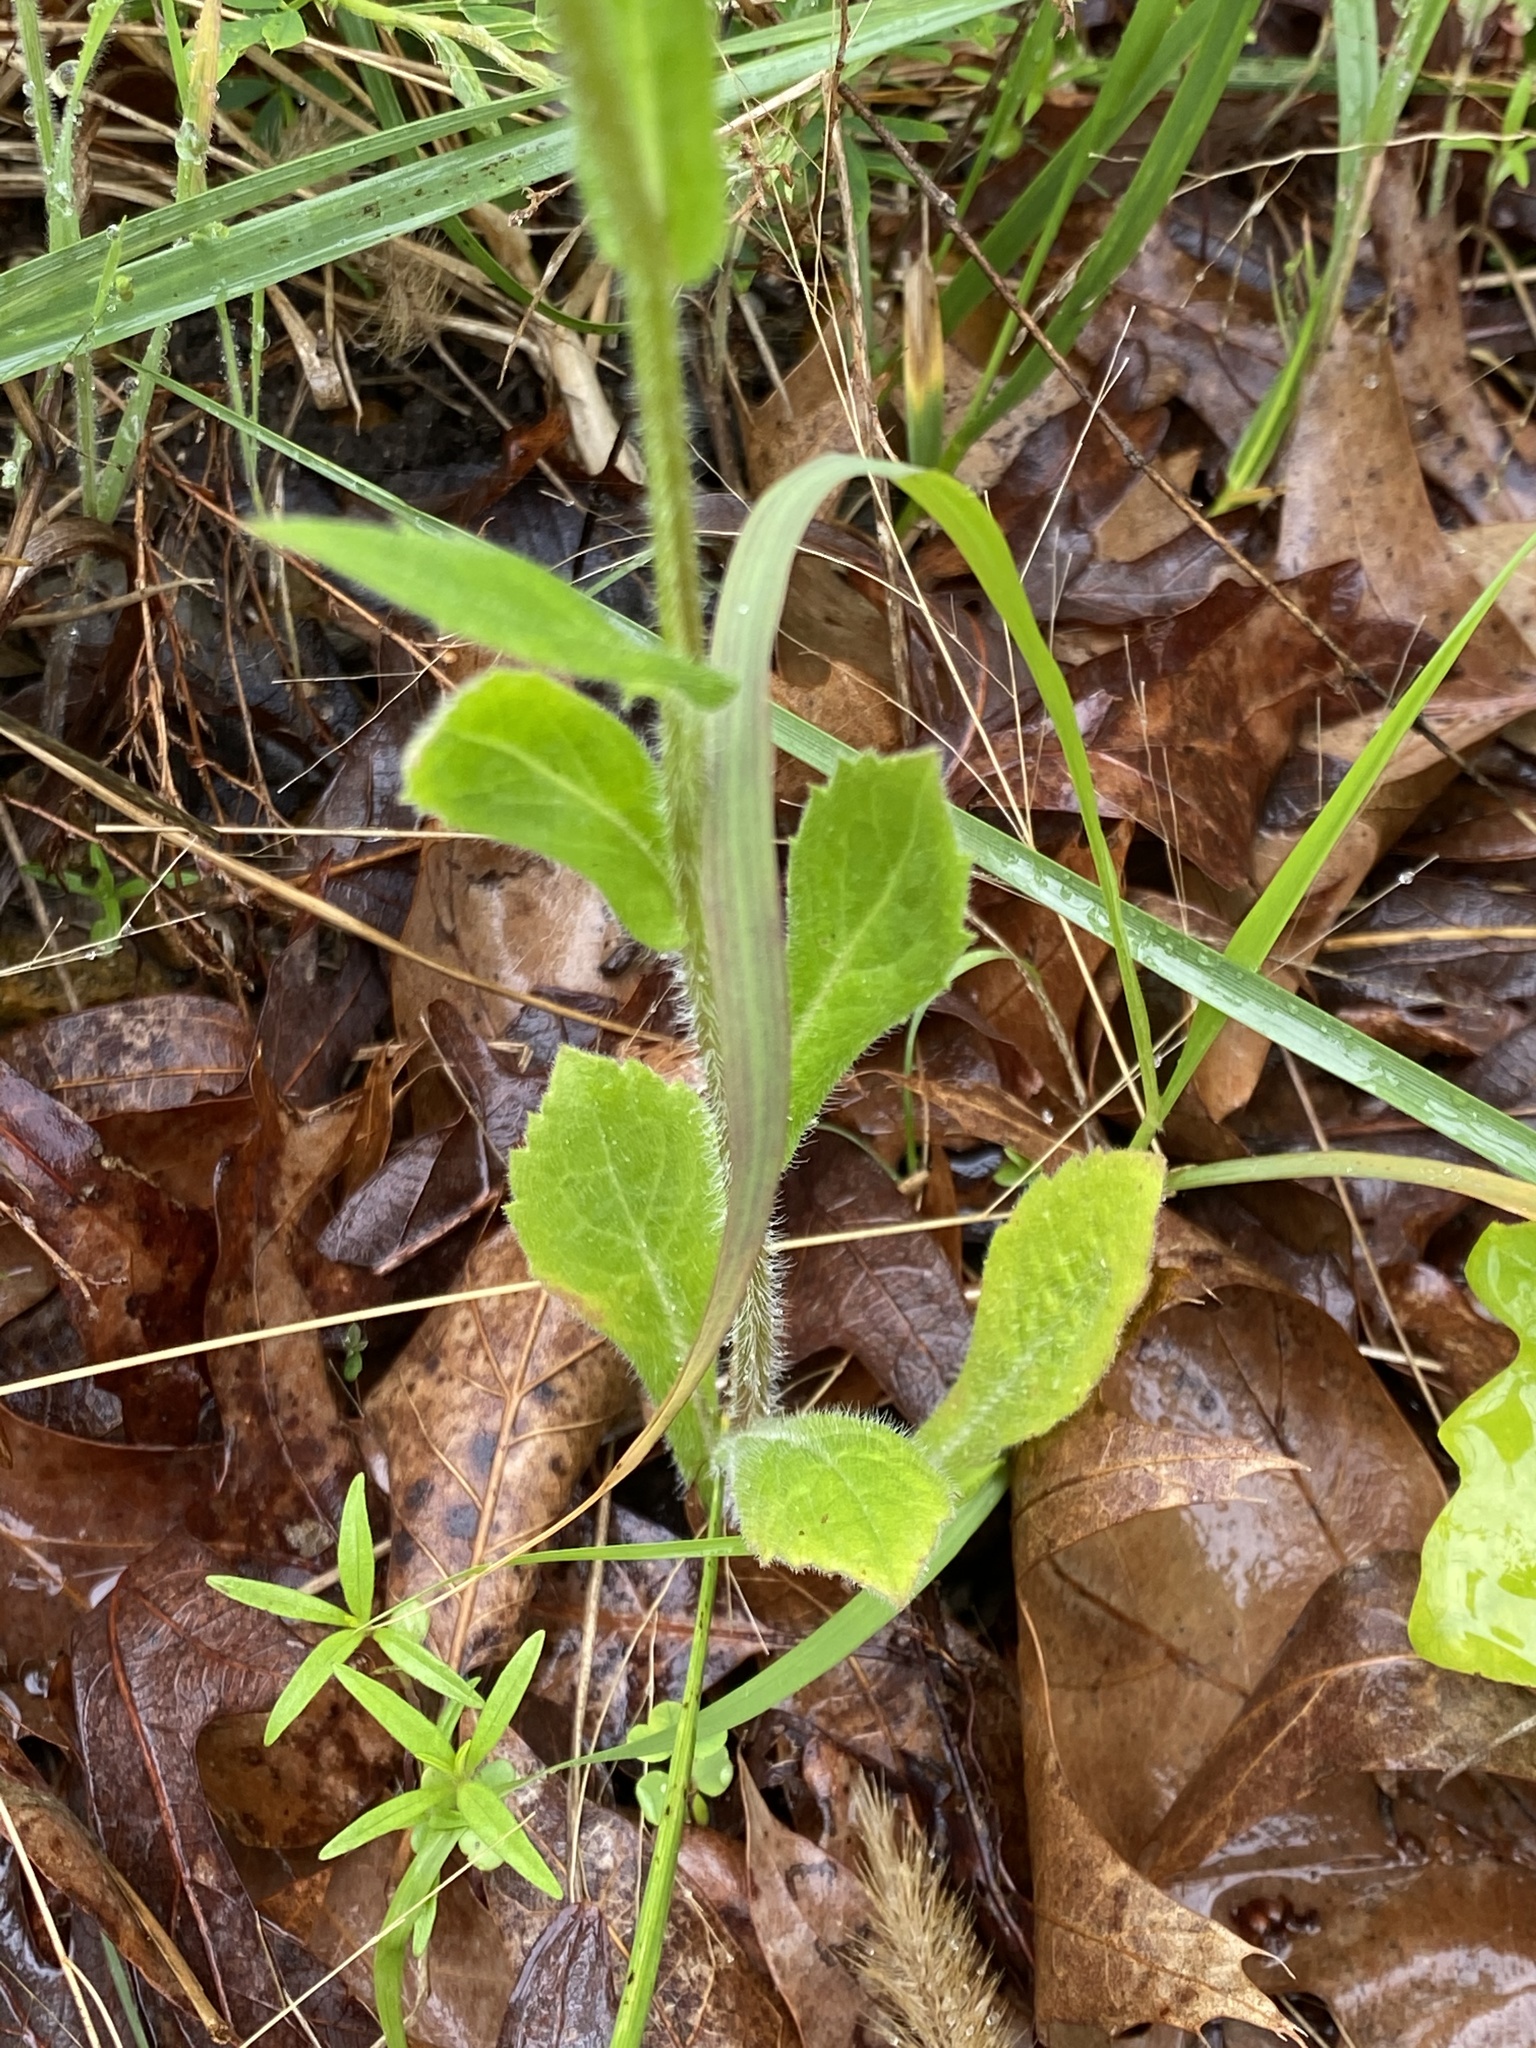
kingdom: Plantae
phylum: Tracheophyta
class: Magnoliopsida
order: Asterales
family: Asteraceae
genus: Erigeron
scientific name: Erigeron philadelphicus
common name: Robin's-plantain
